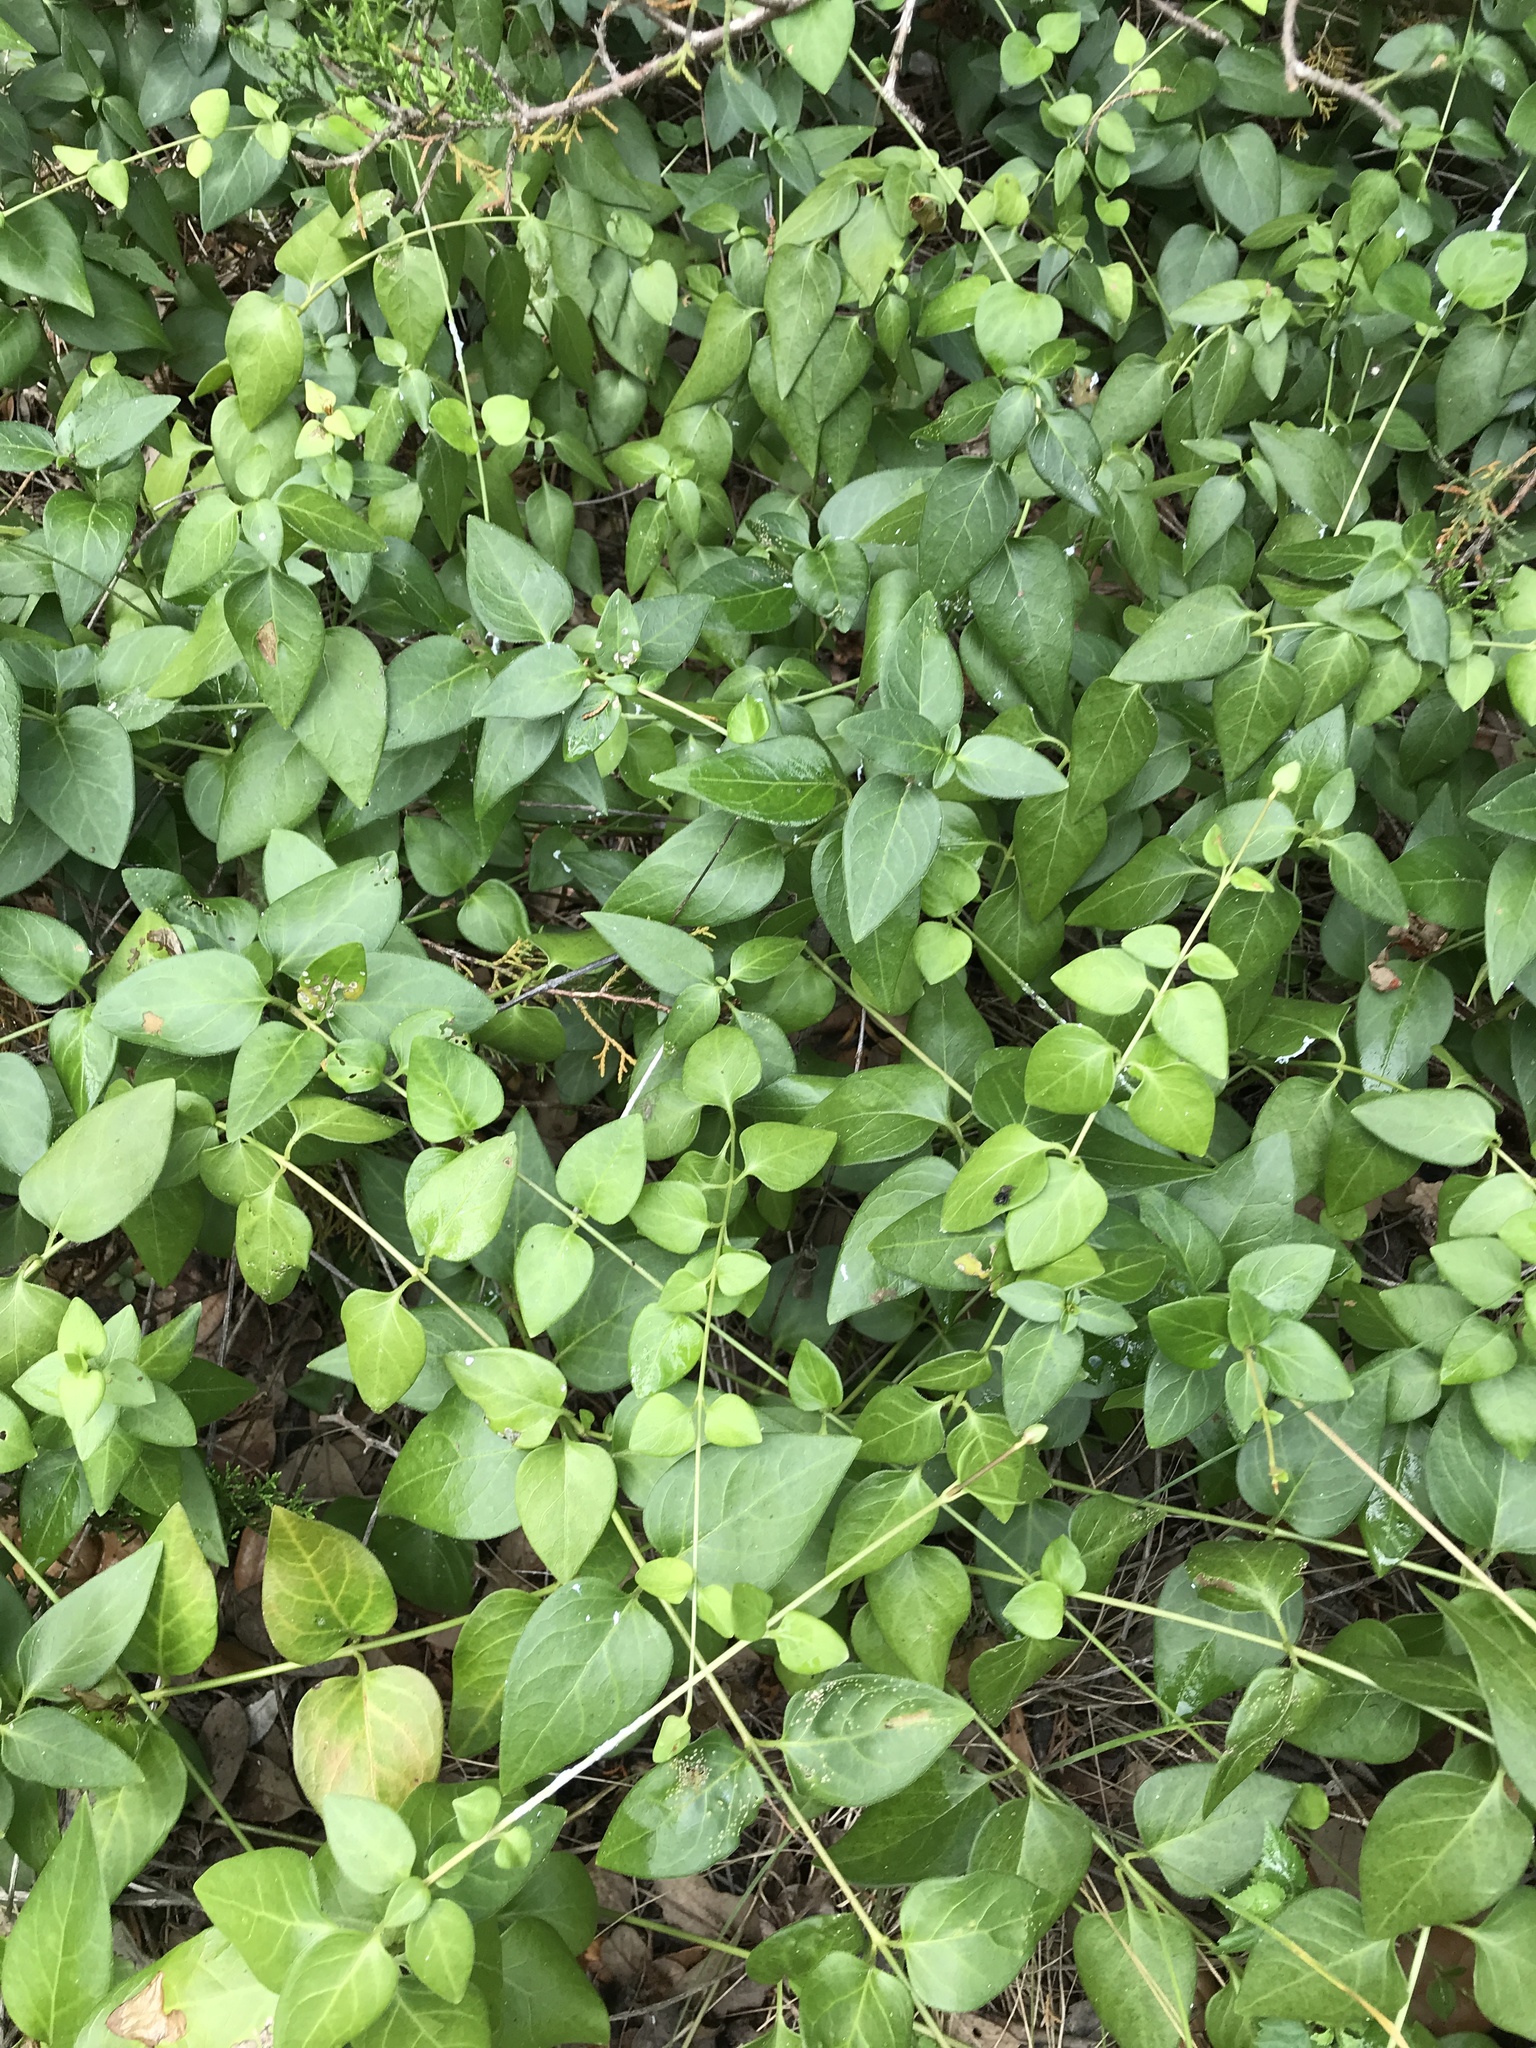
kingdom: Plantae
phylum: Tracheophyta
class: Magnoliopsida
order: Gentianales
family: Apocynaceae
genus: Vinca
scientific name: Vinca major
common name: Greater periwinkle
